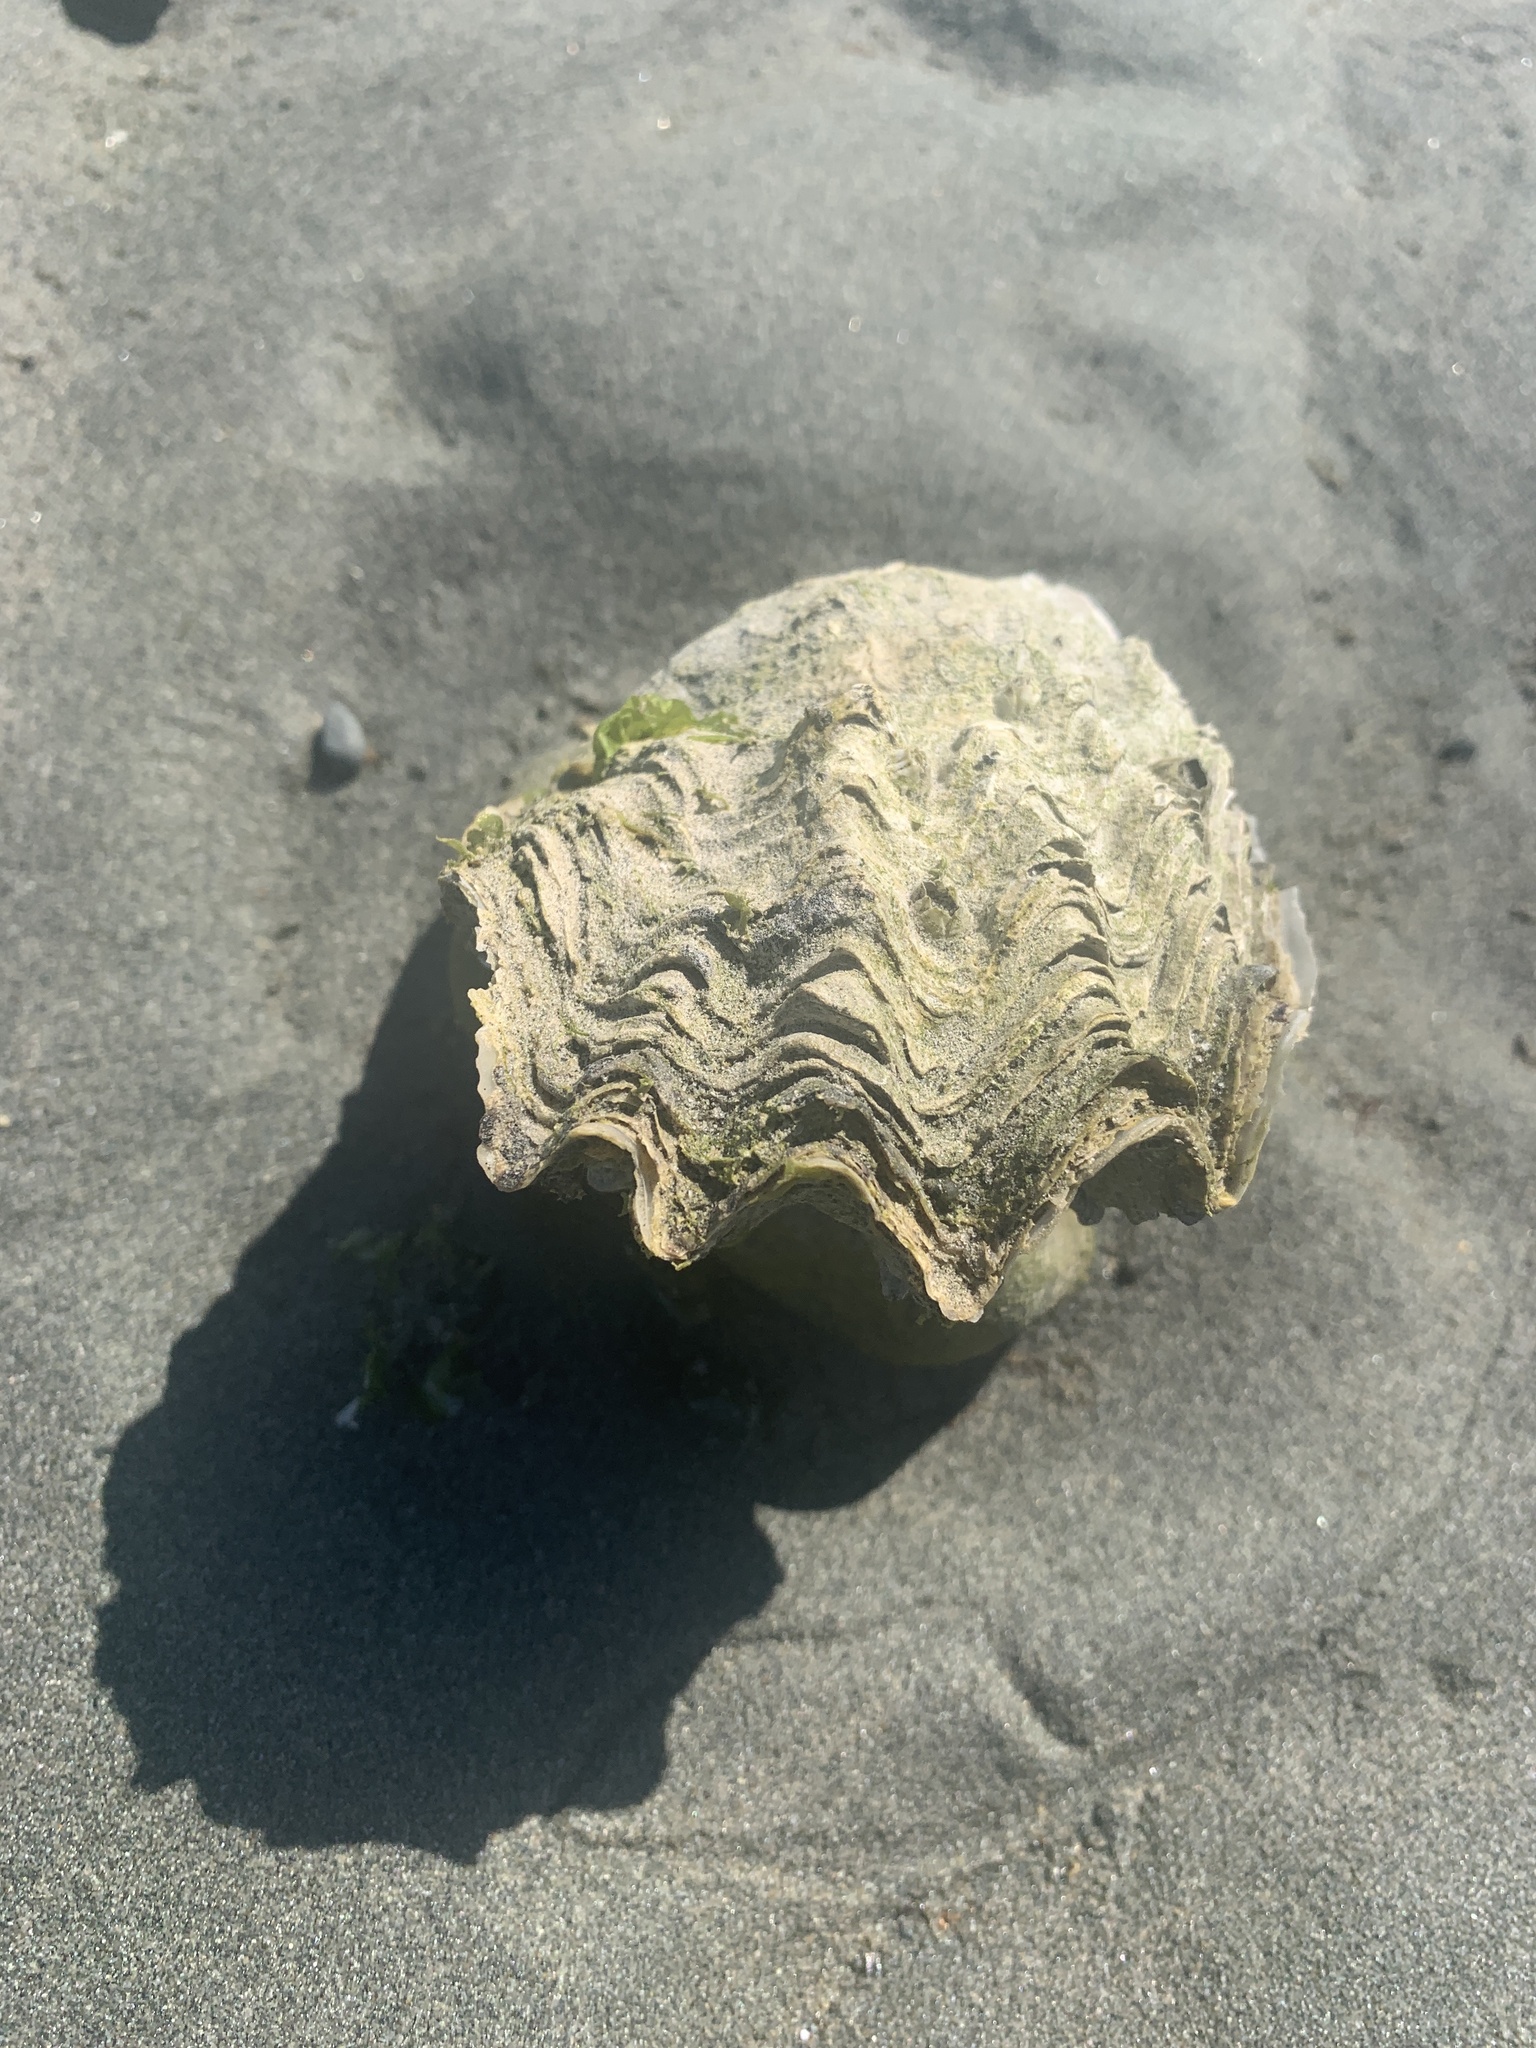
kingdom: Animalia
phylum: Mollusca
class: Bivalvia
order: Ostreida
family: Ostreidae
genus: Magallana
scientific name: Magallana gigas
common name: Pacific oyster
